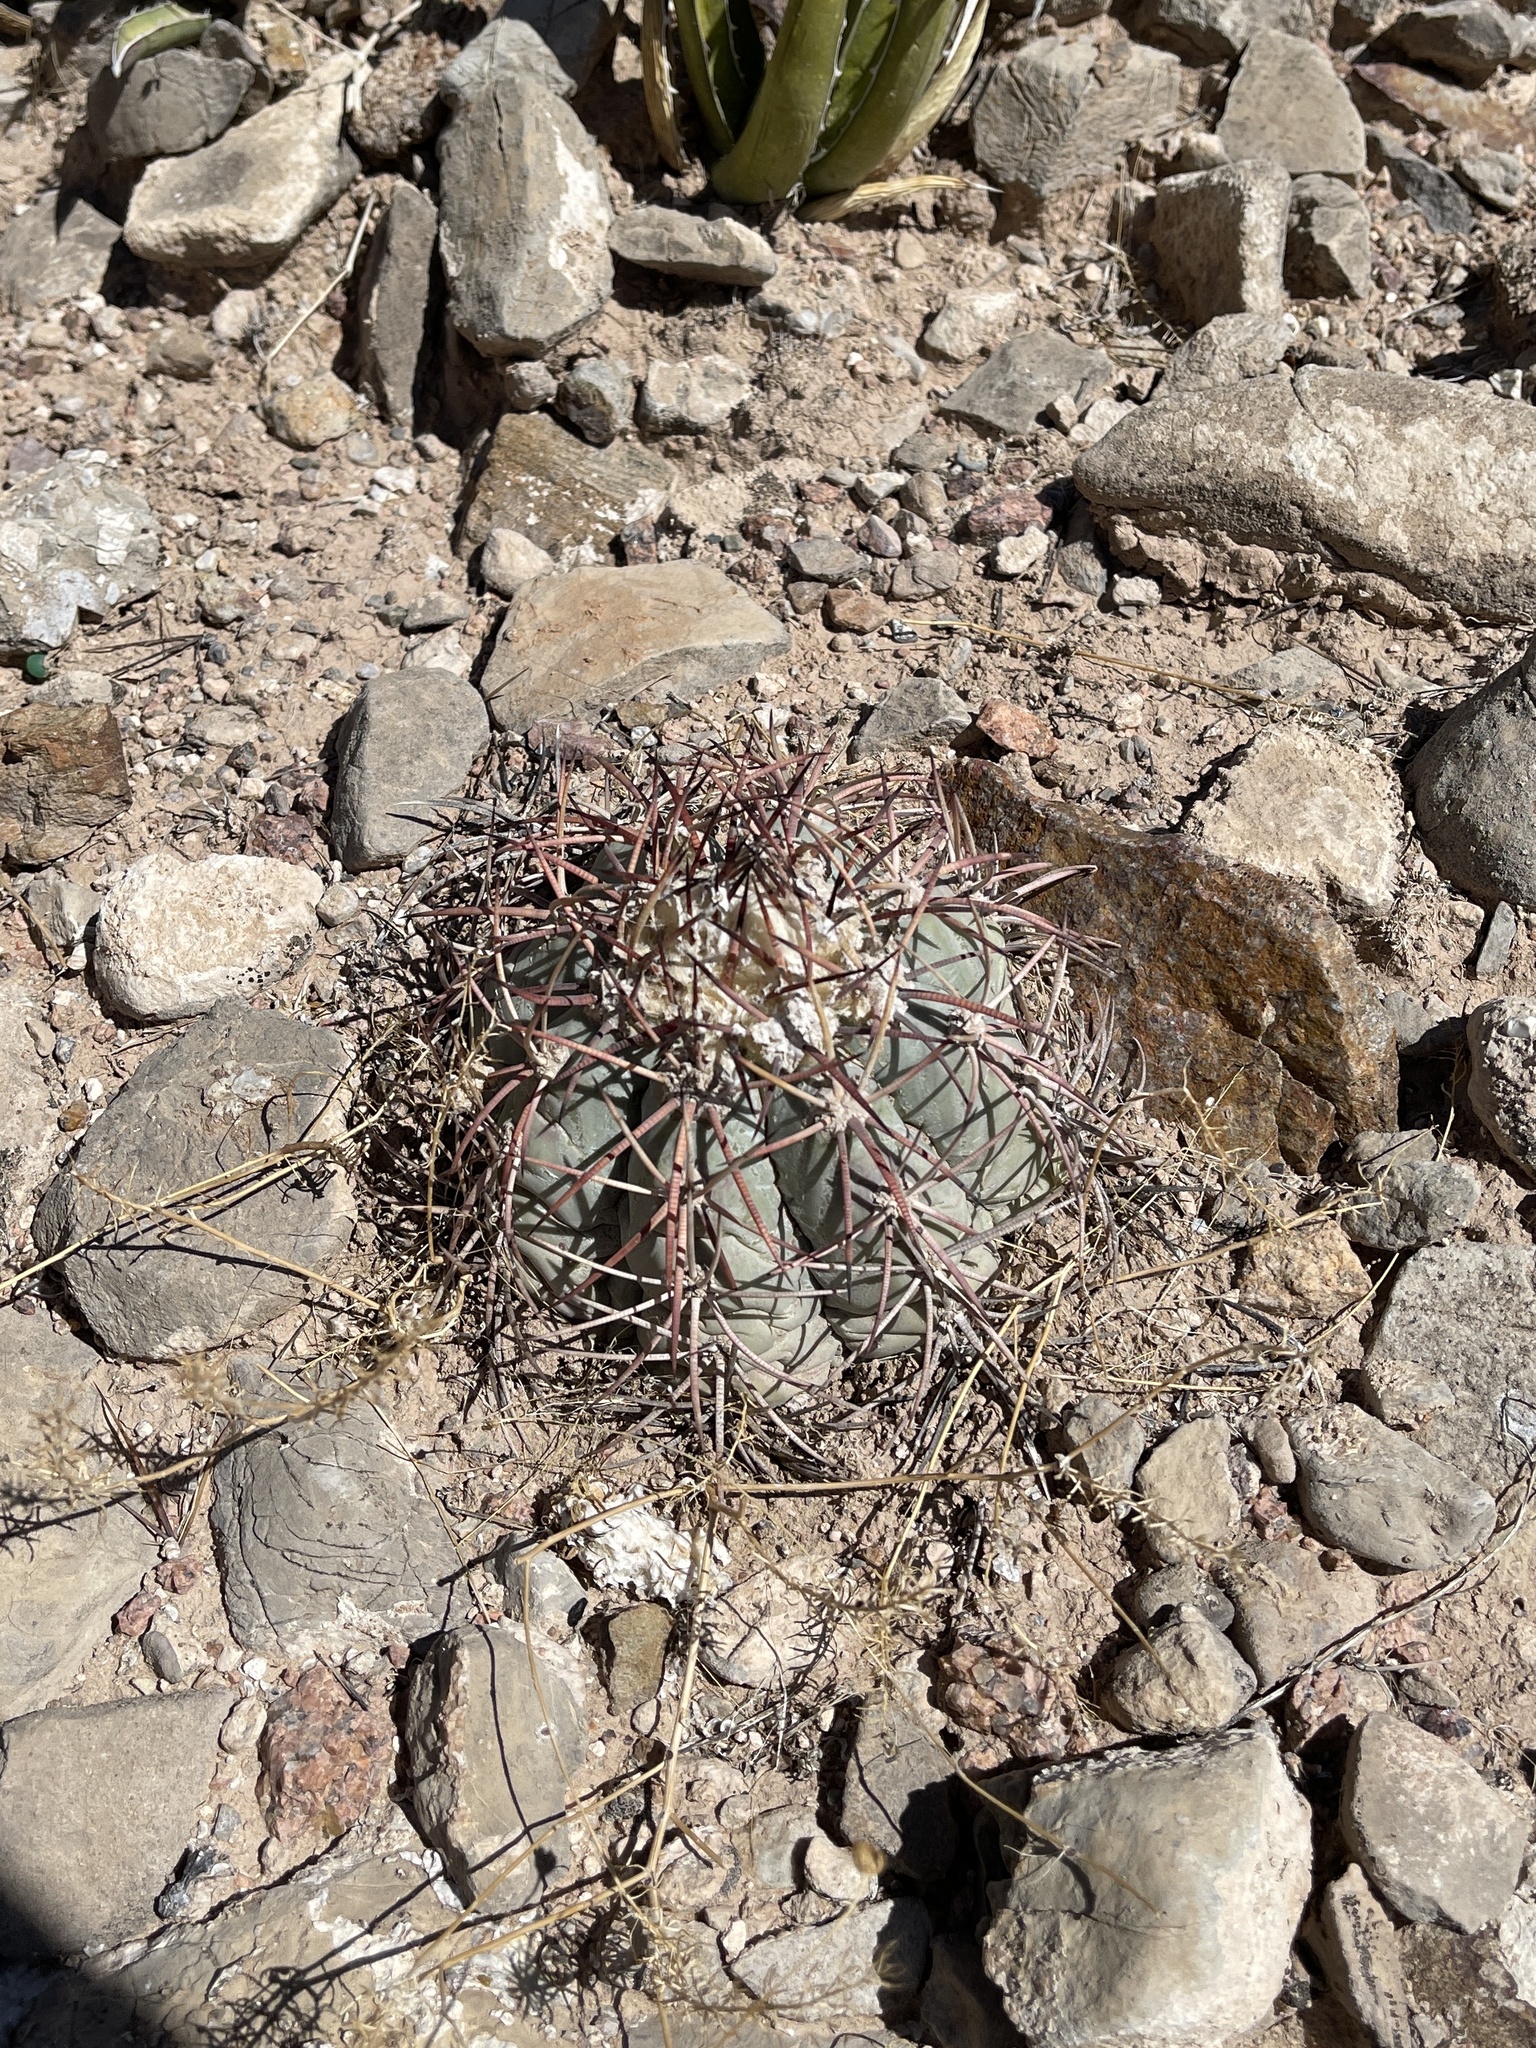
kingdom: Plantae
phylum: Tracheophyta
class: Magnoliopsida
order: Caryophyllales
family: Cactaceae
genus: Echinocactus
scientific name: Echinocactus horizonthalonius
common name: Devilshead
